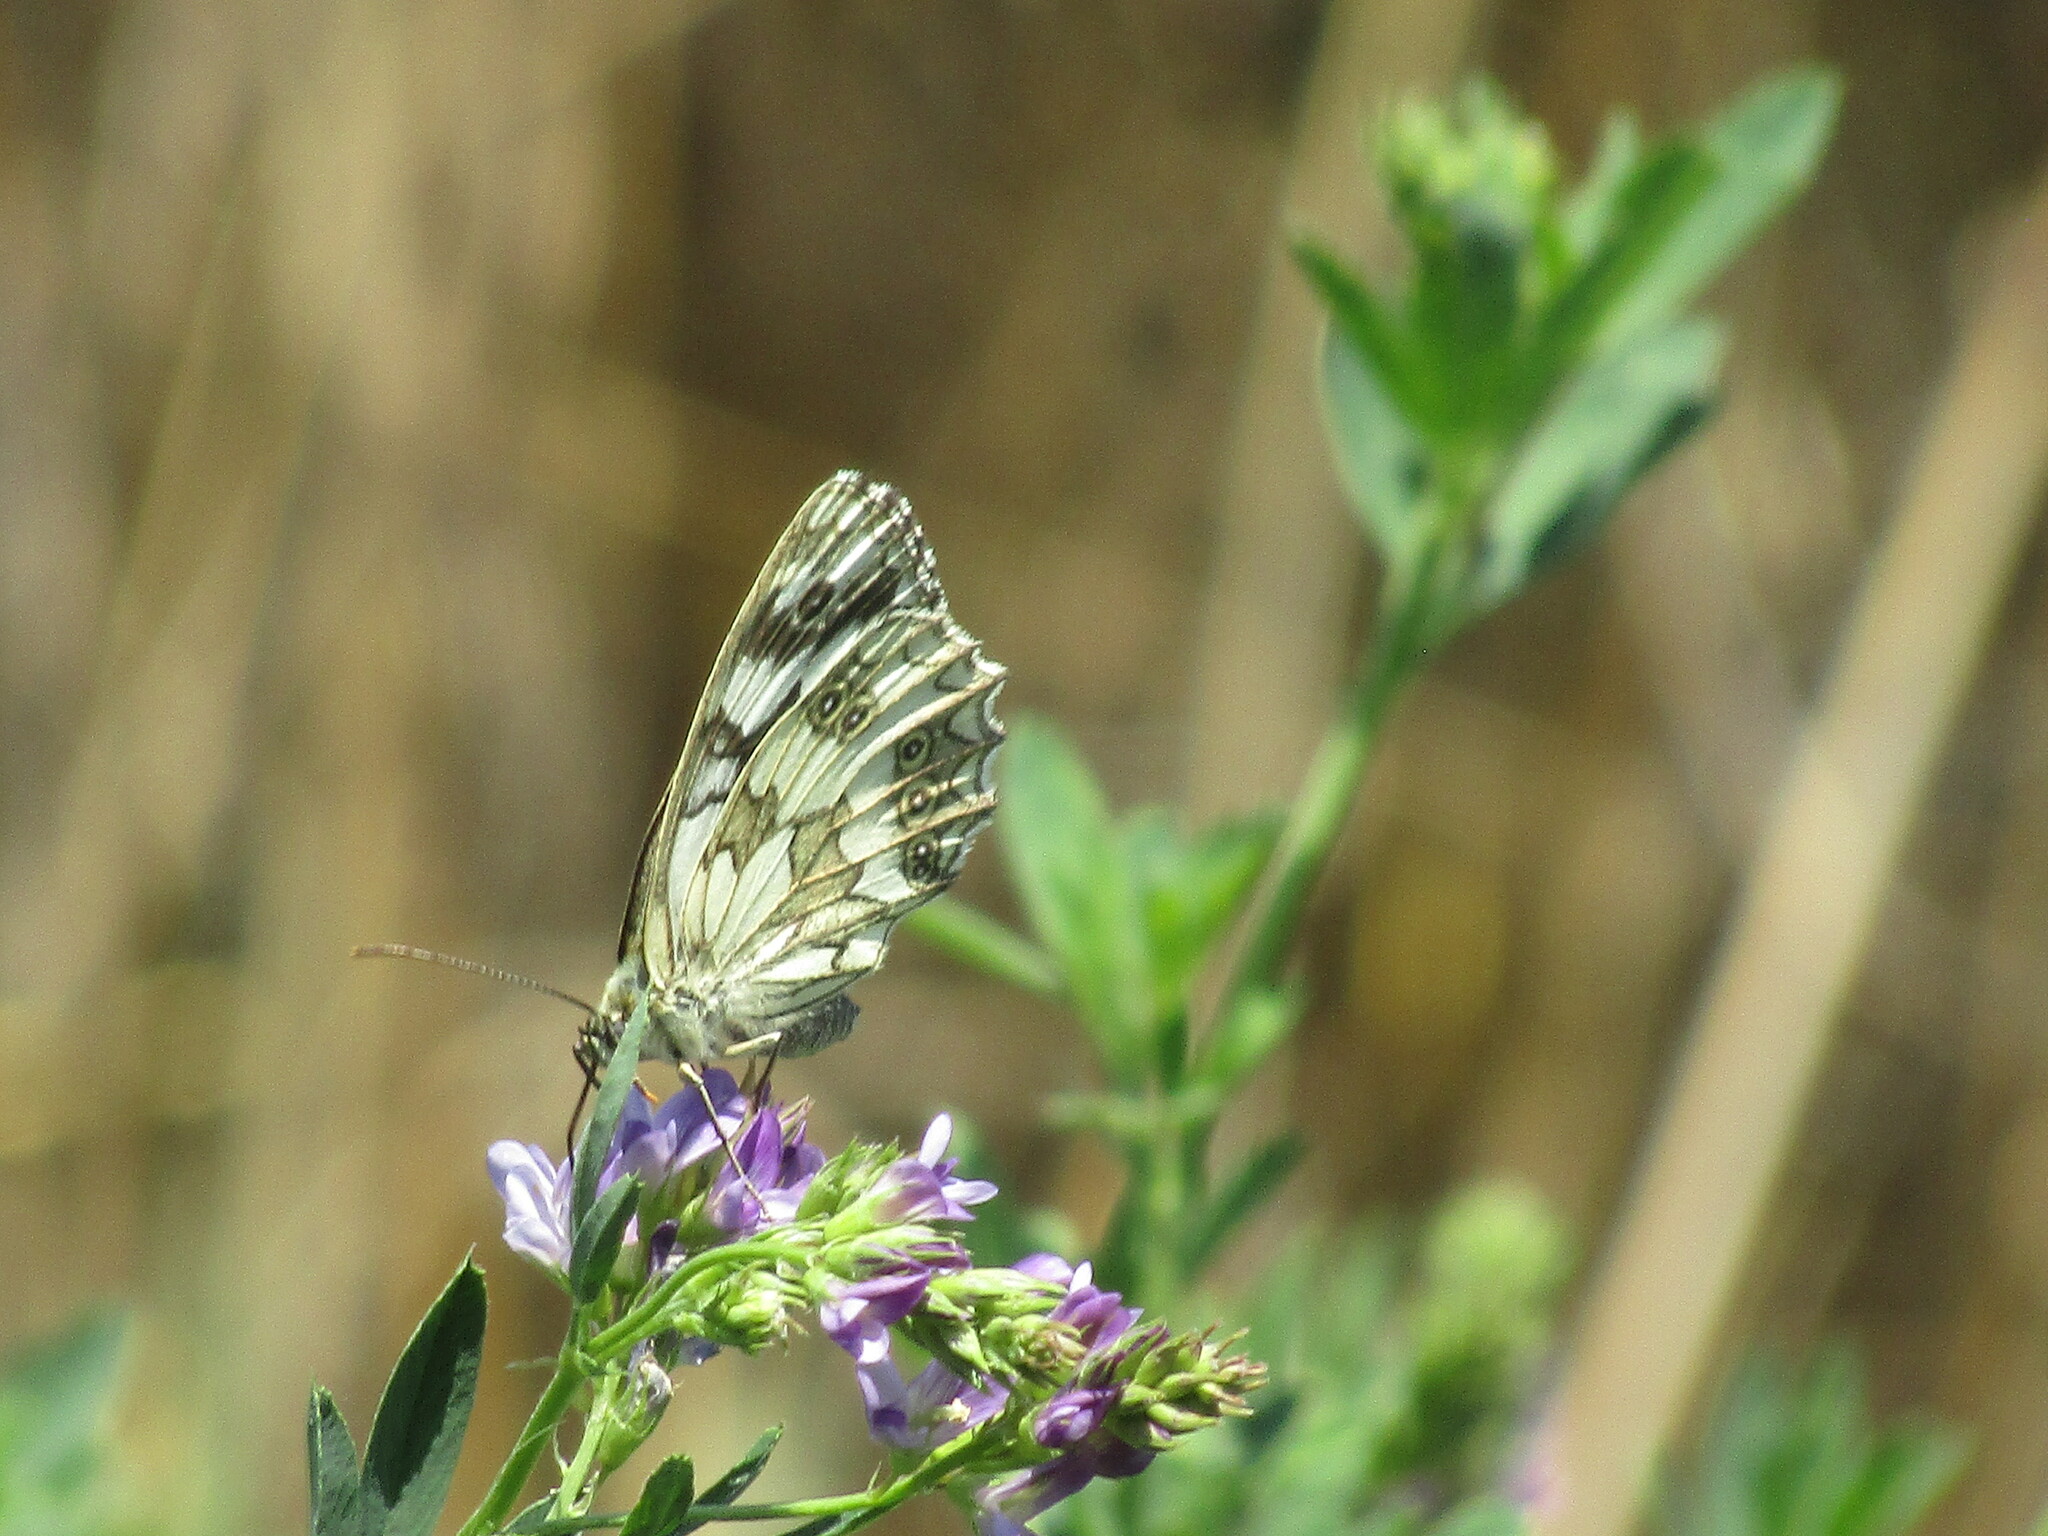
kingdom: Animalia
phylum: Arthropoda
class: Insecta
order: Lepidoptera
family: Nymphalidae
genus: Melanargia
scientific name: Melanargia galathea
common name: Marbled white
